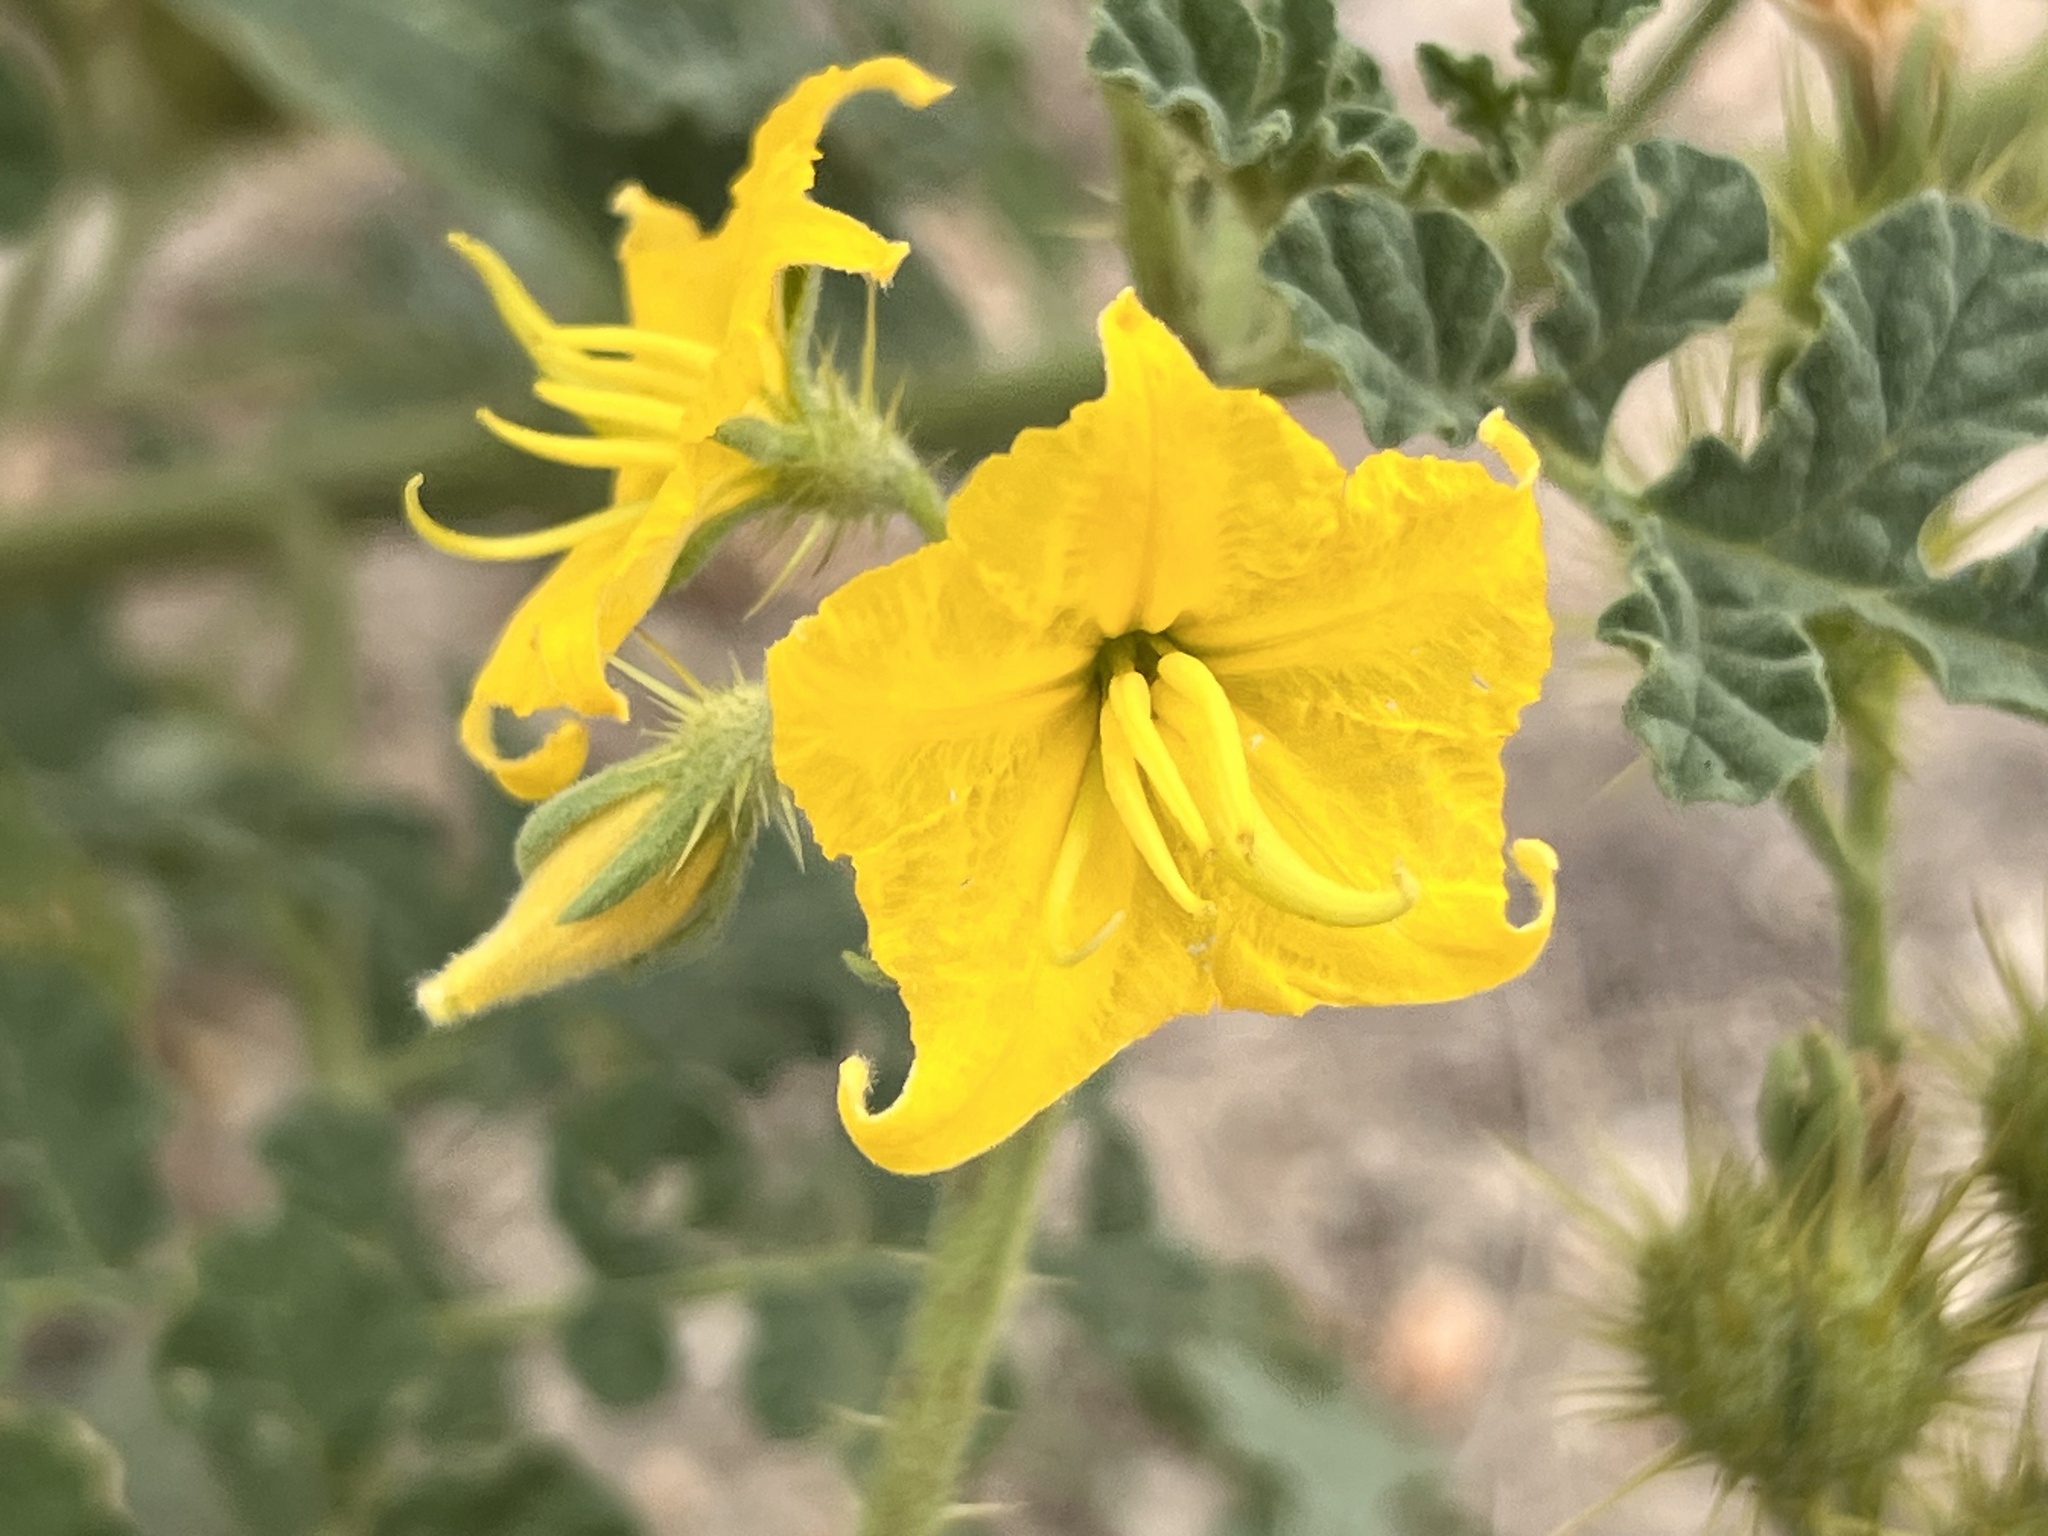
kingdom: Plantae
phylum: Tracheophyta
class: Magnoliopsida
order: Solanales
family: Solanaceae
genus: Solanum
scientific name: Solanum angustifolium
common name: Buffalobur nightshade
